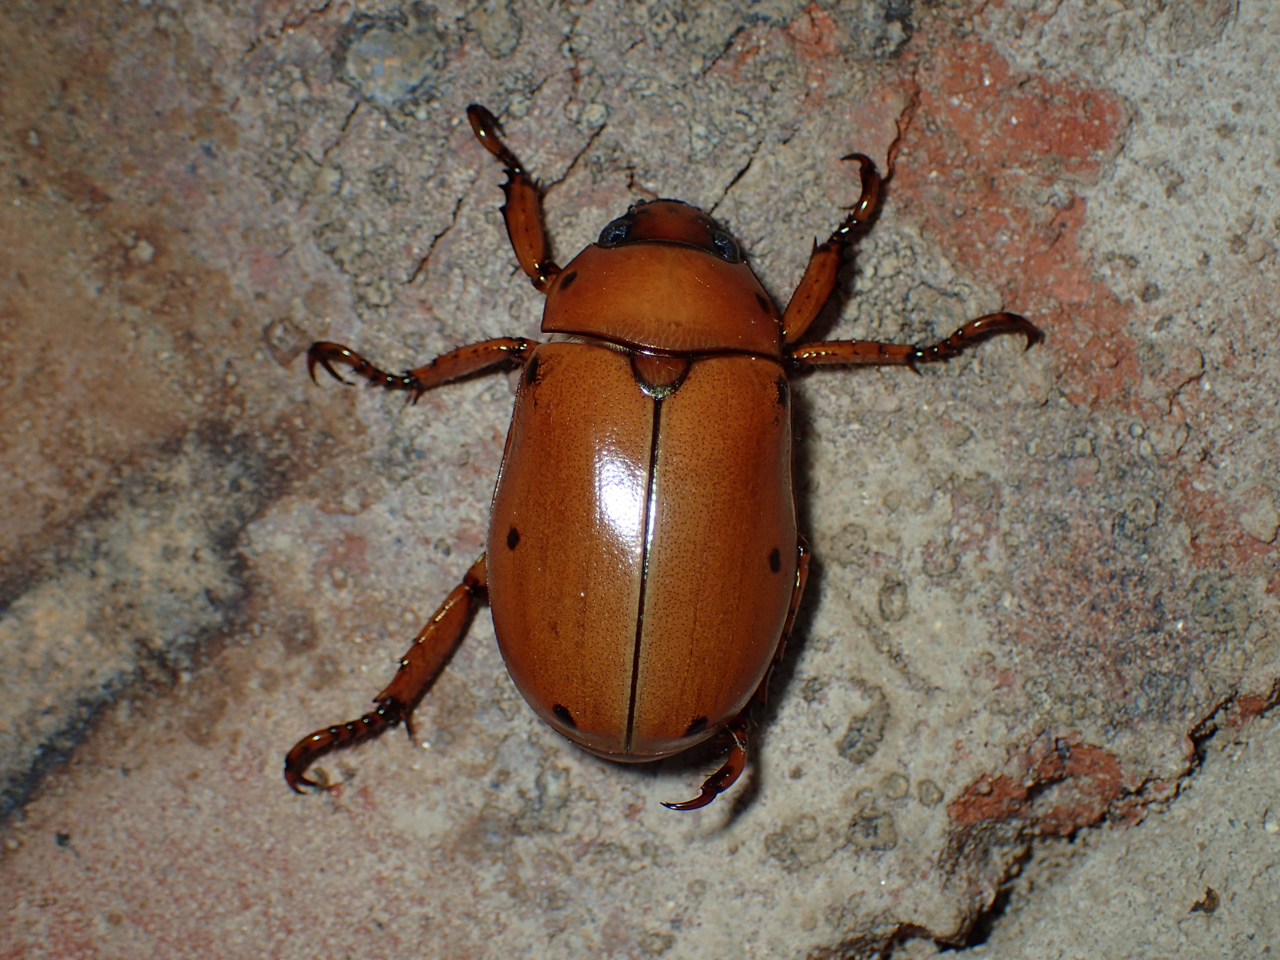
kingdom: Animalia
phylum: Arthropoda
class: Insecta
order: Coleoptera
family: Scarabaeidae
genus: Pelidnota
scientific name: Pelidnota punctata
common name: Grapevine beetle
